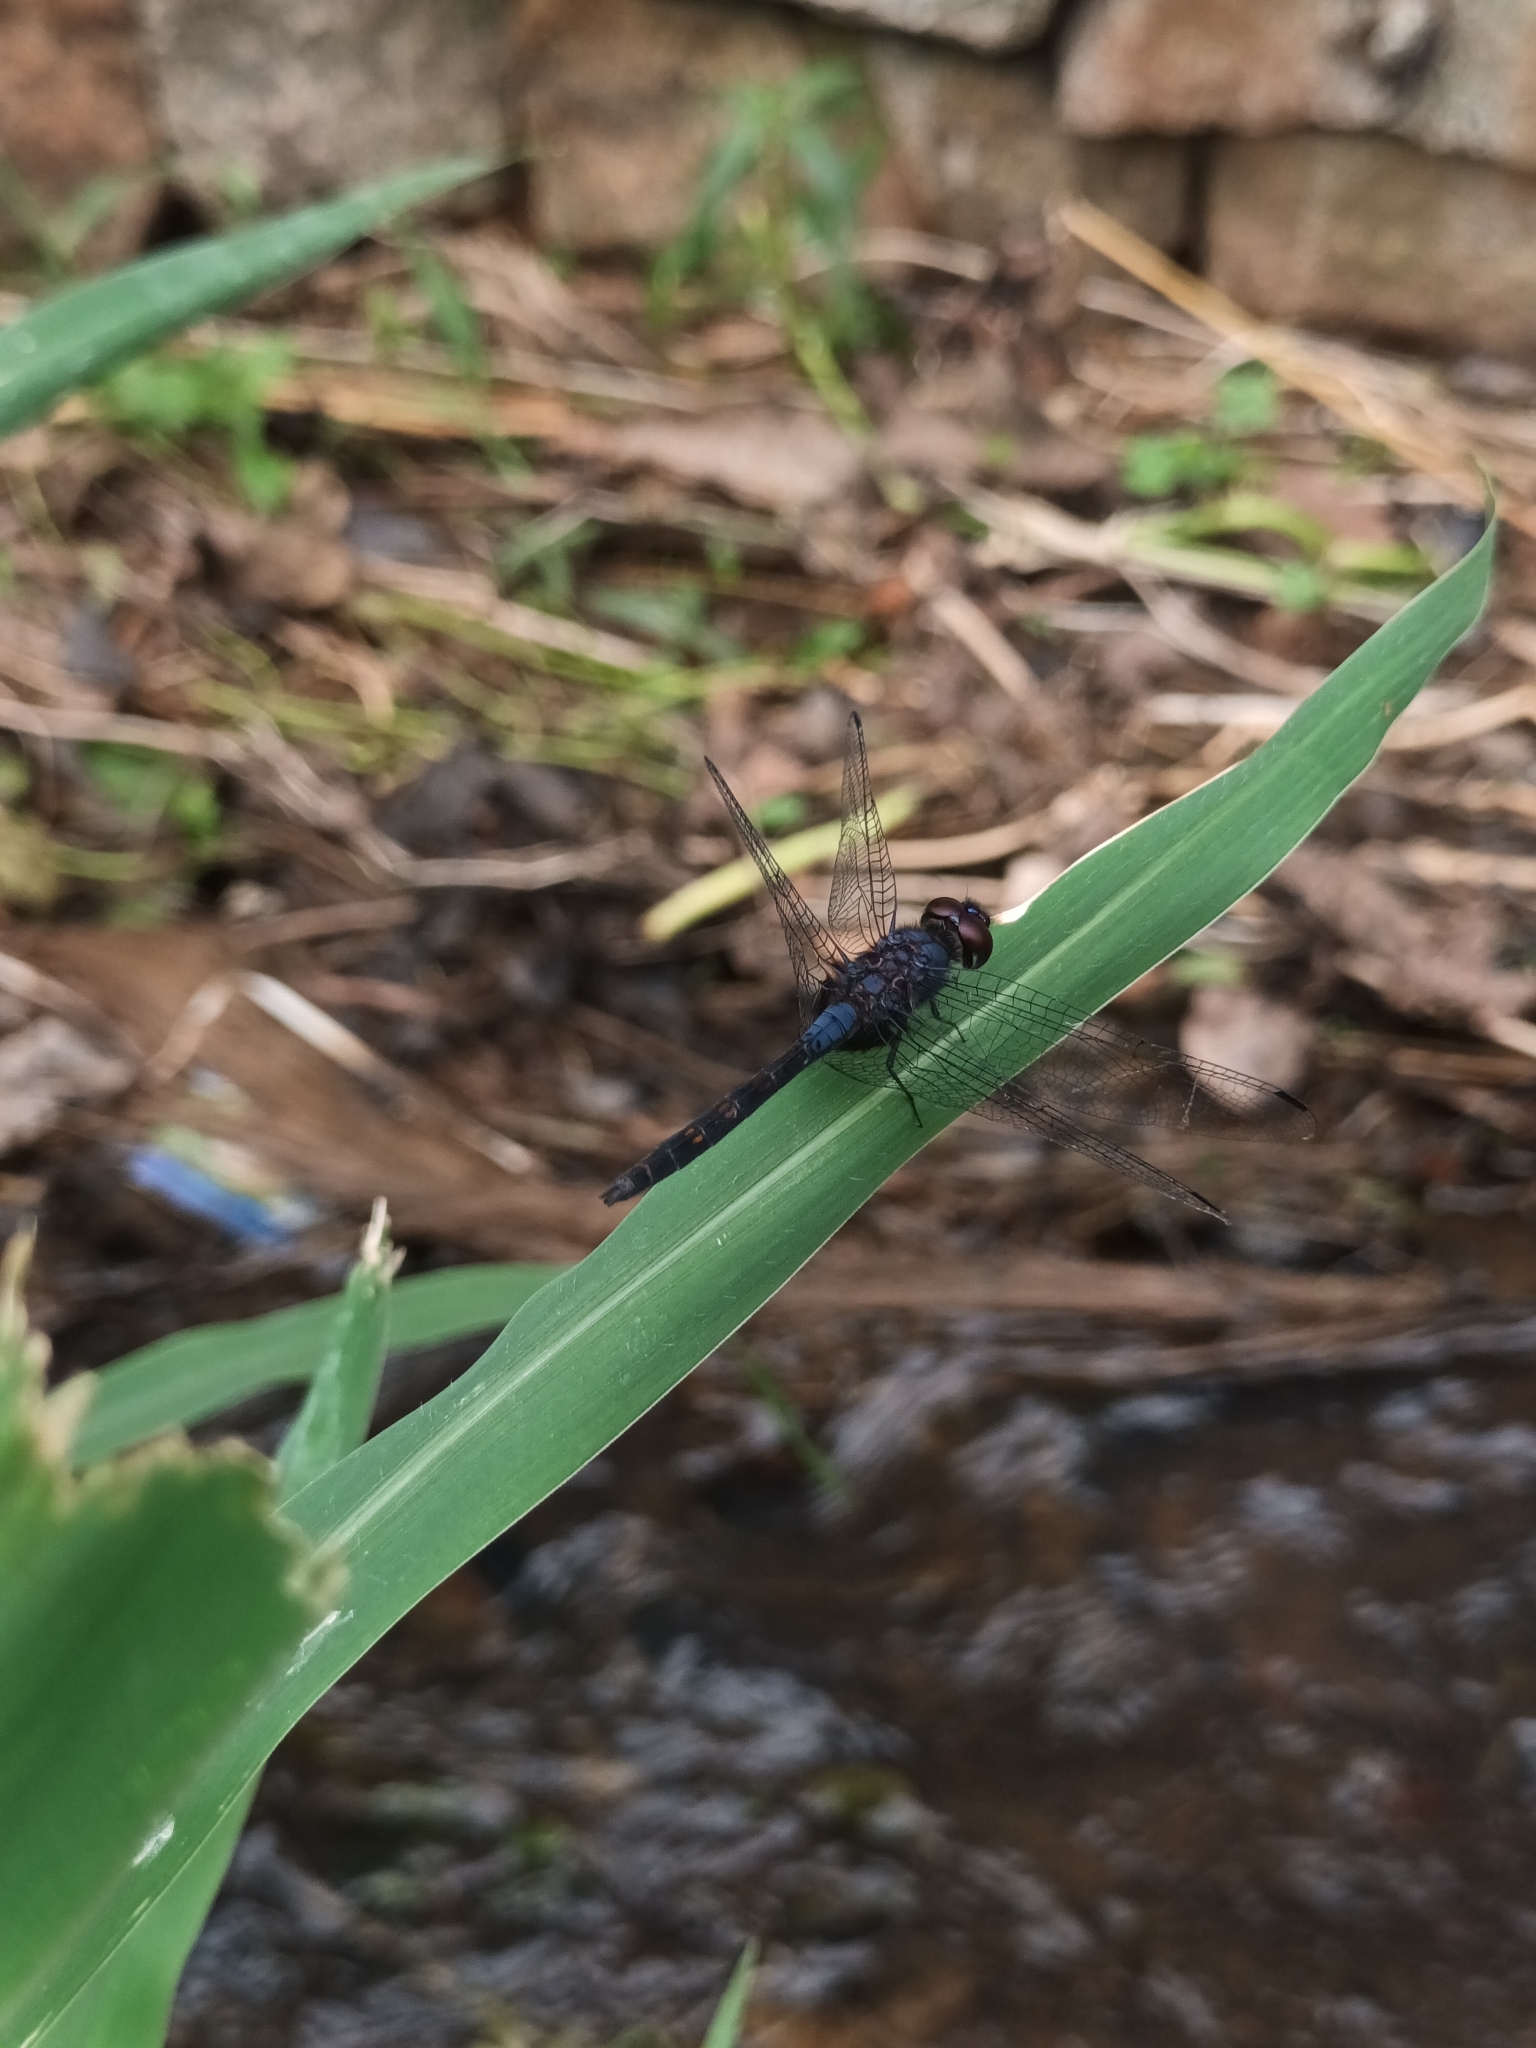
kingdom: Animalia
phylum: Arthropoda
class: Insecta
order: Odonata
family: Libellulidae
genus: Trithemis
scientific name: Trithemis festiva
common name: Indigo dropwing
